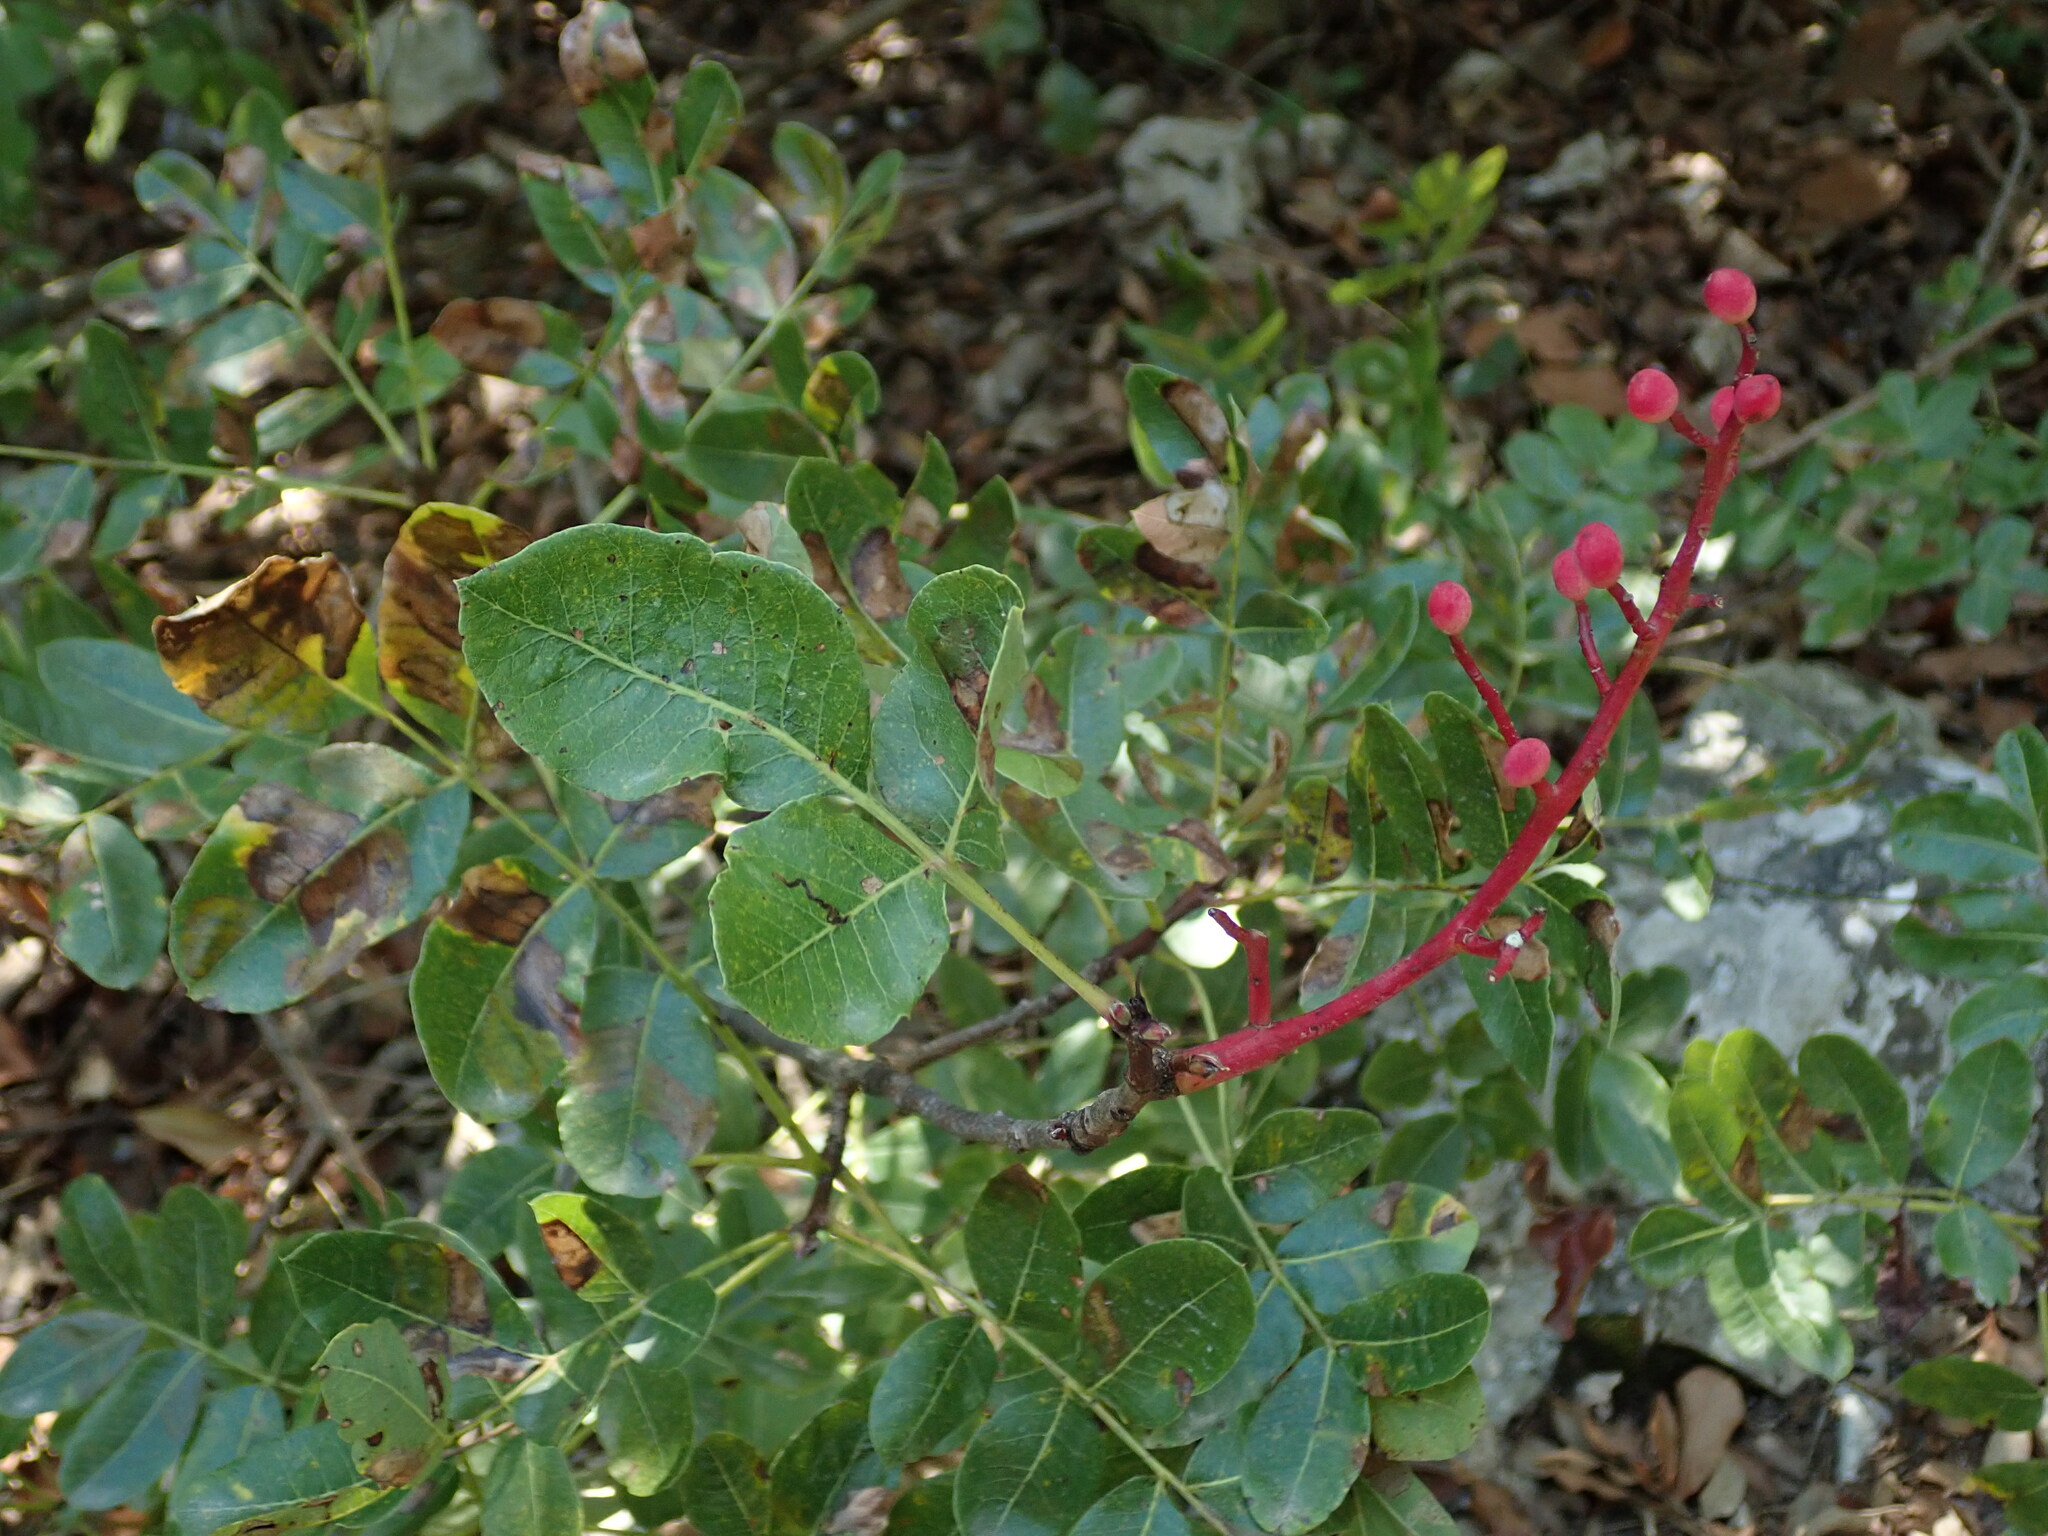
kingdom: Plantae
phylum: Tracheophyta
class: Magnoliopsida
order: Sapindales
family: Anacardiaceae
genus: Pistacia
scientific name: Pistacia terebinthus
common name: Terebinth
